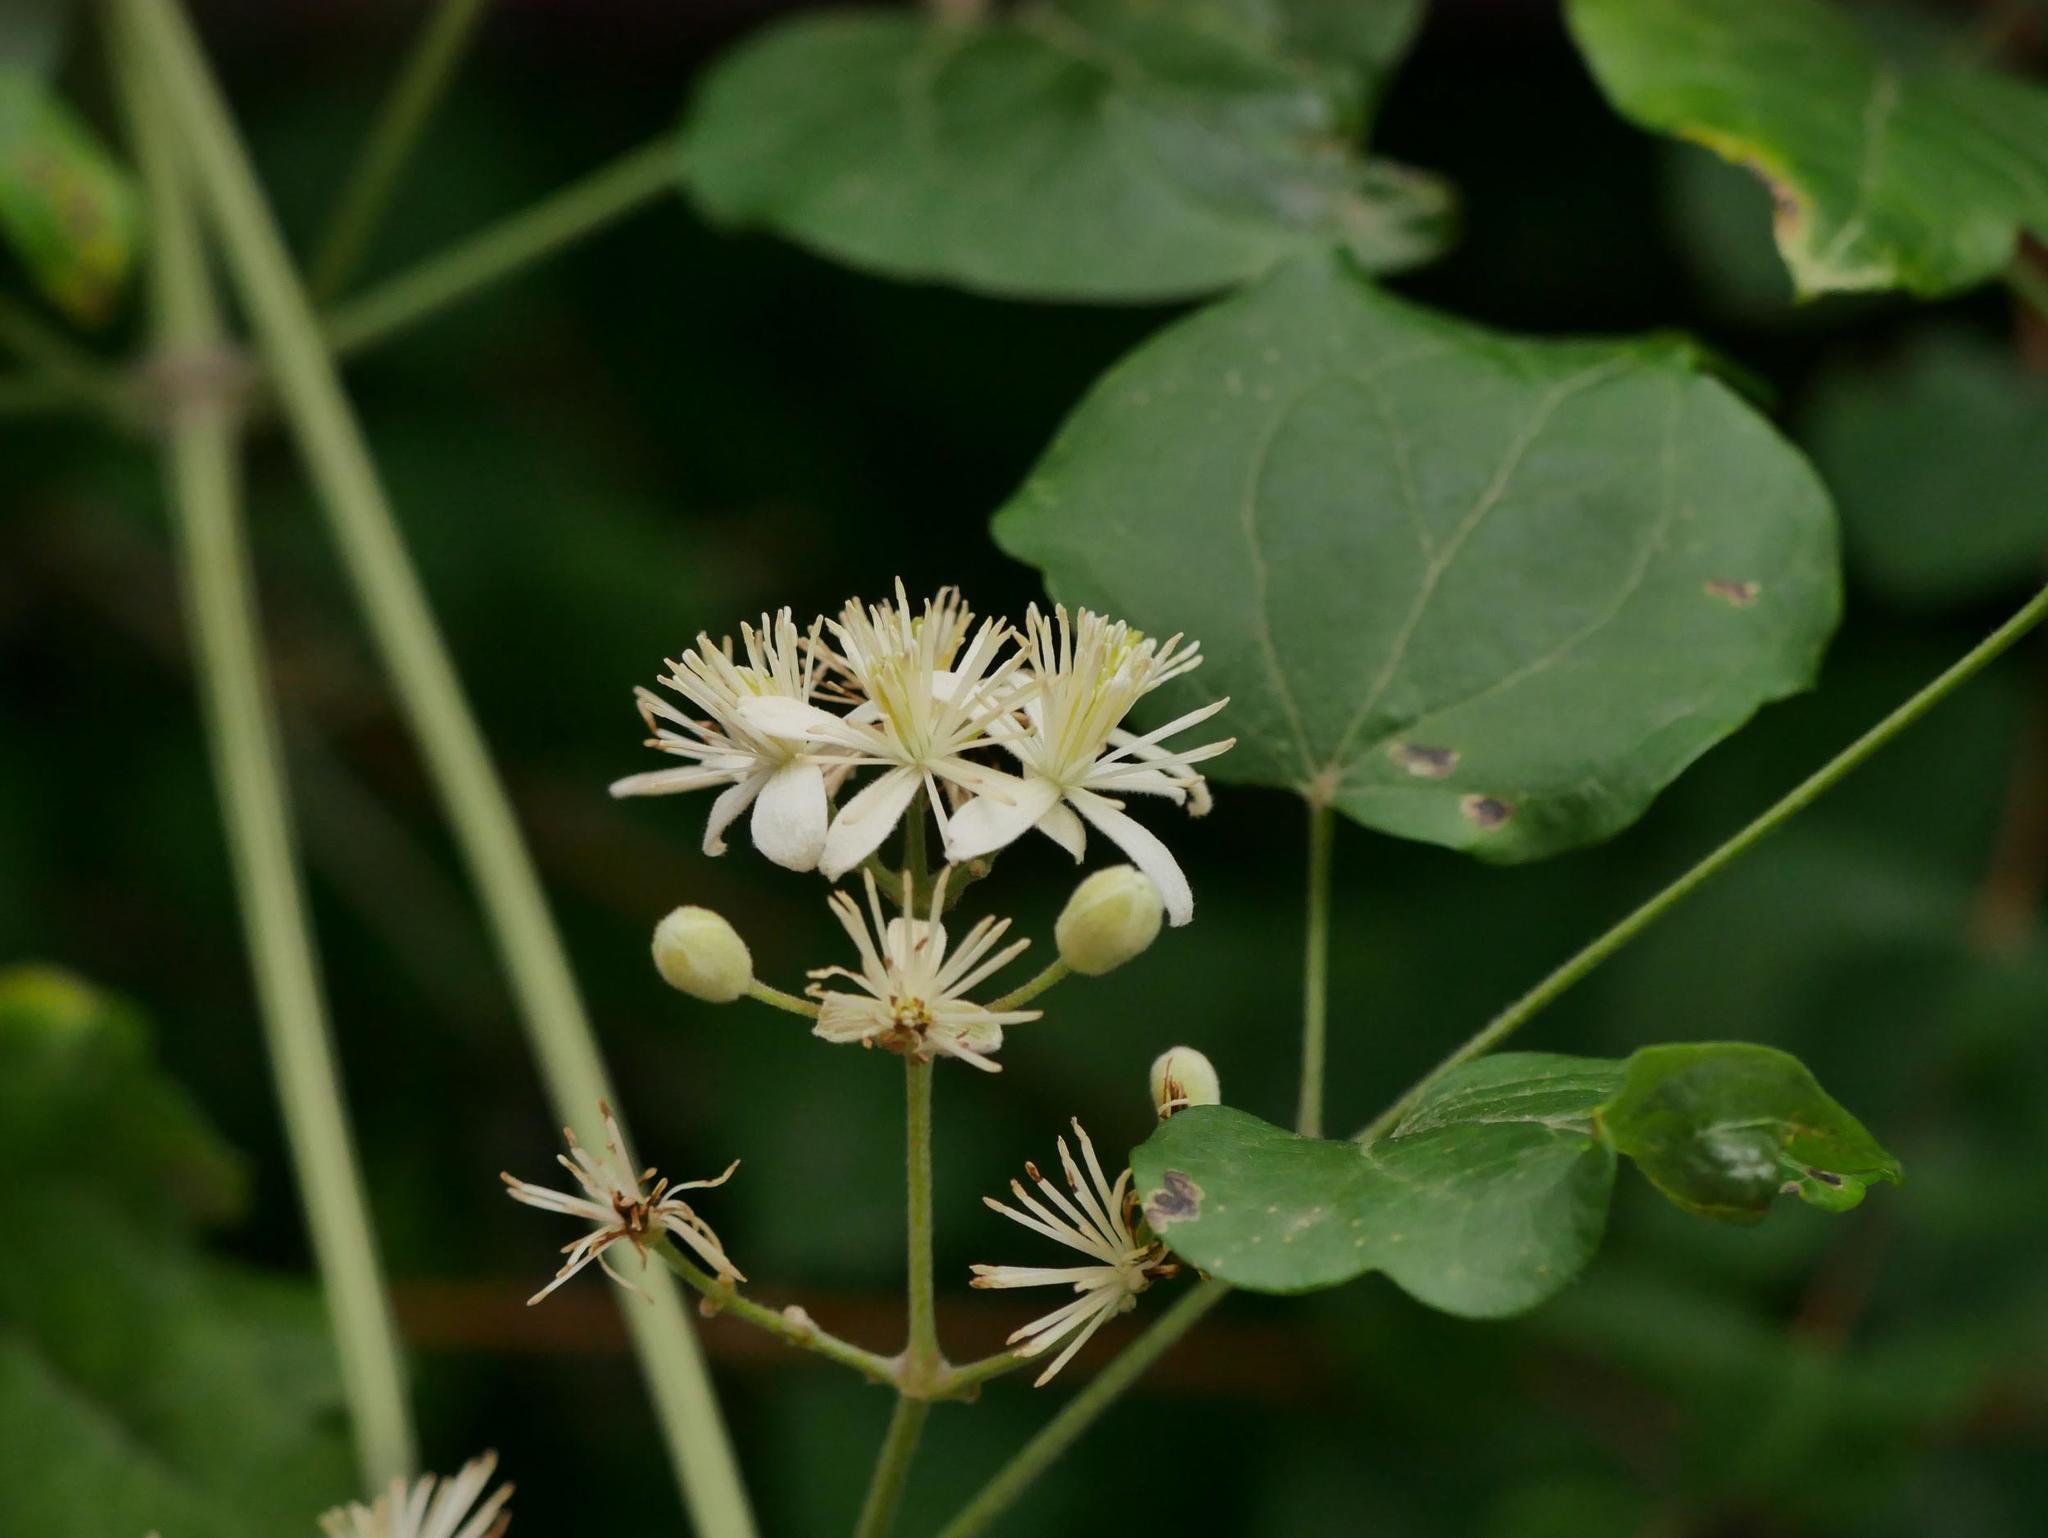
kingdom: Plantae
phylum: Tracheophyta
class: Magnoliopsida
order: Ranunculales
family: Ranunculaceae
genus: Clematis
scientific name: Clematis vitalba
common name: Evergreen clematis
